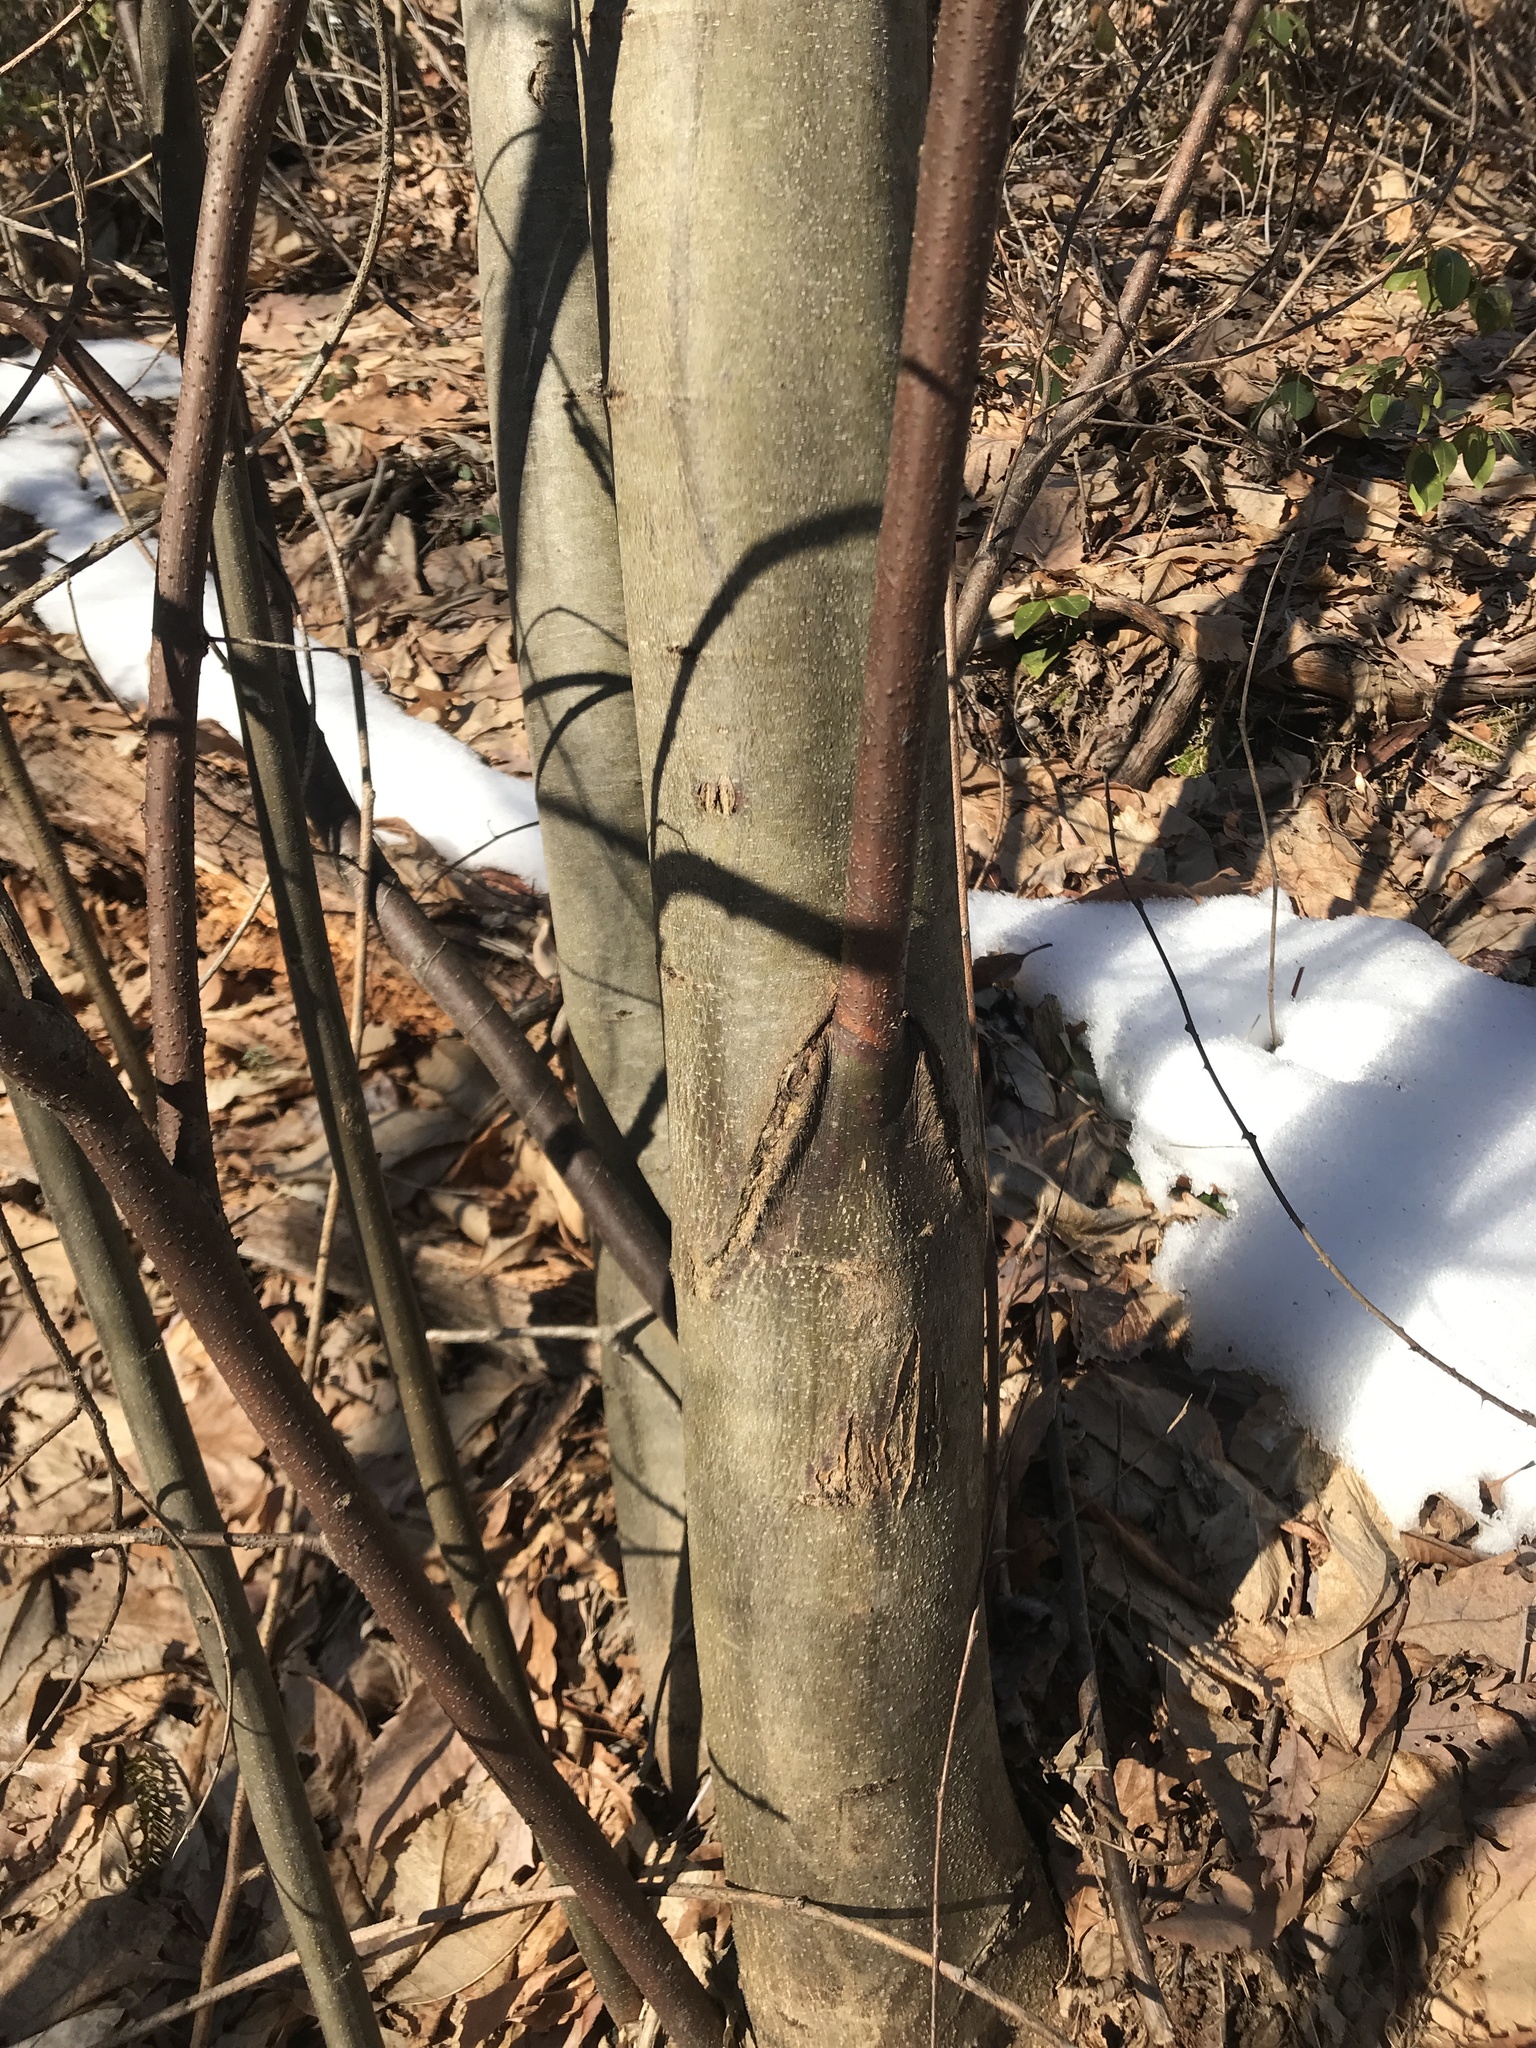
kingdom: Plantae
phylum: Tracheophyta
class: Magnoliopsida
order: Fagales
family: Fagaceae
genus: Castanea
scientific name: Castanea dentata
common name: American chestnut
